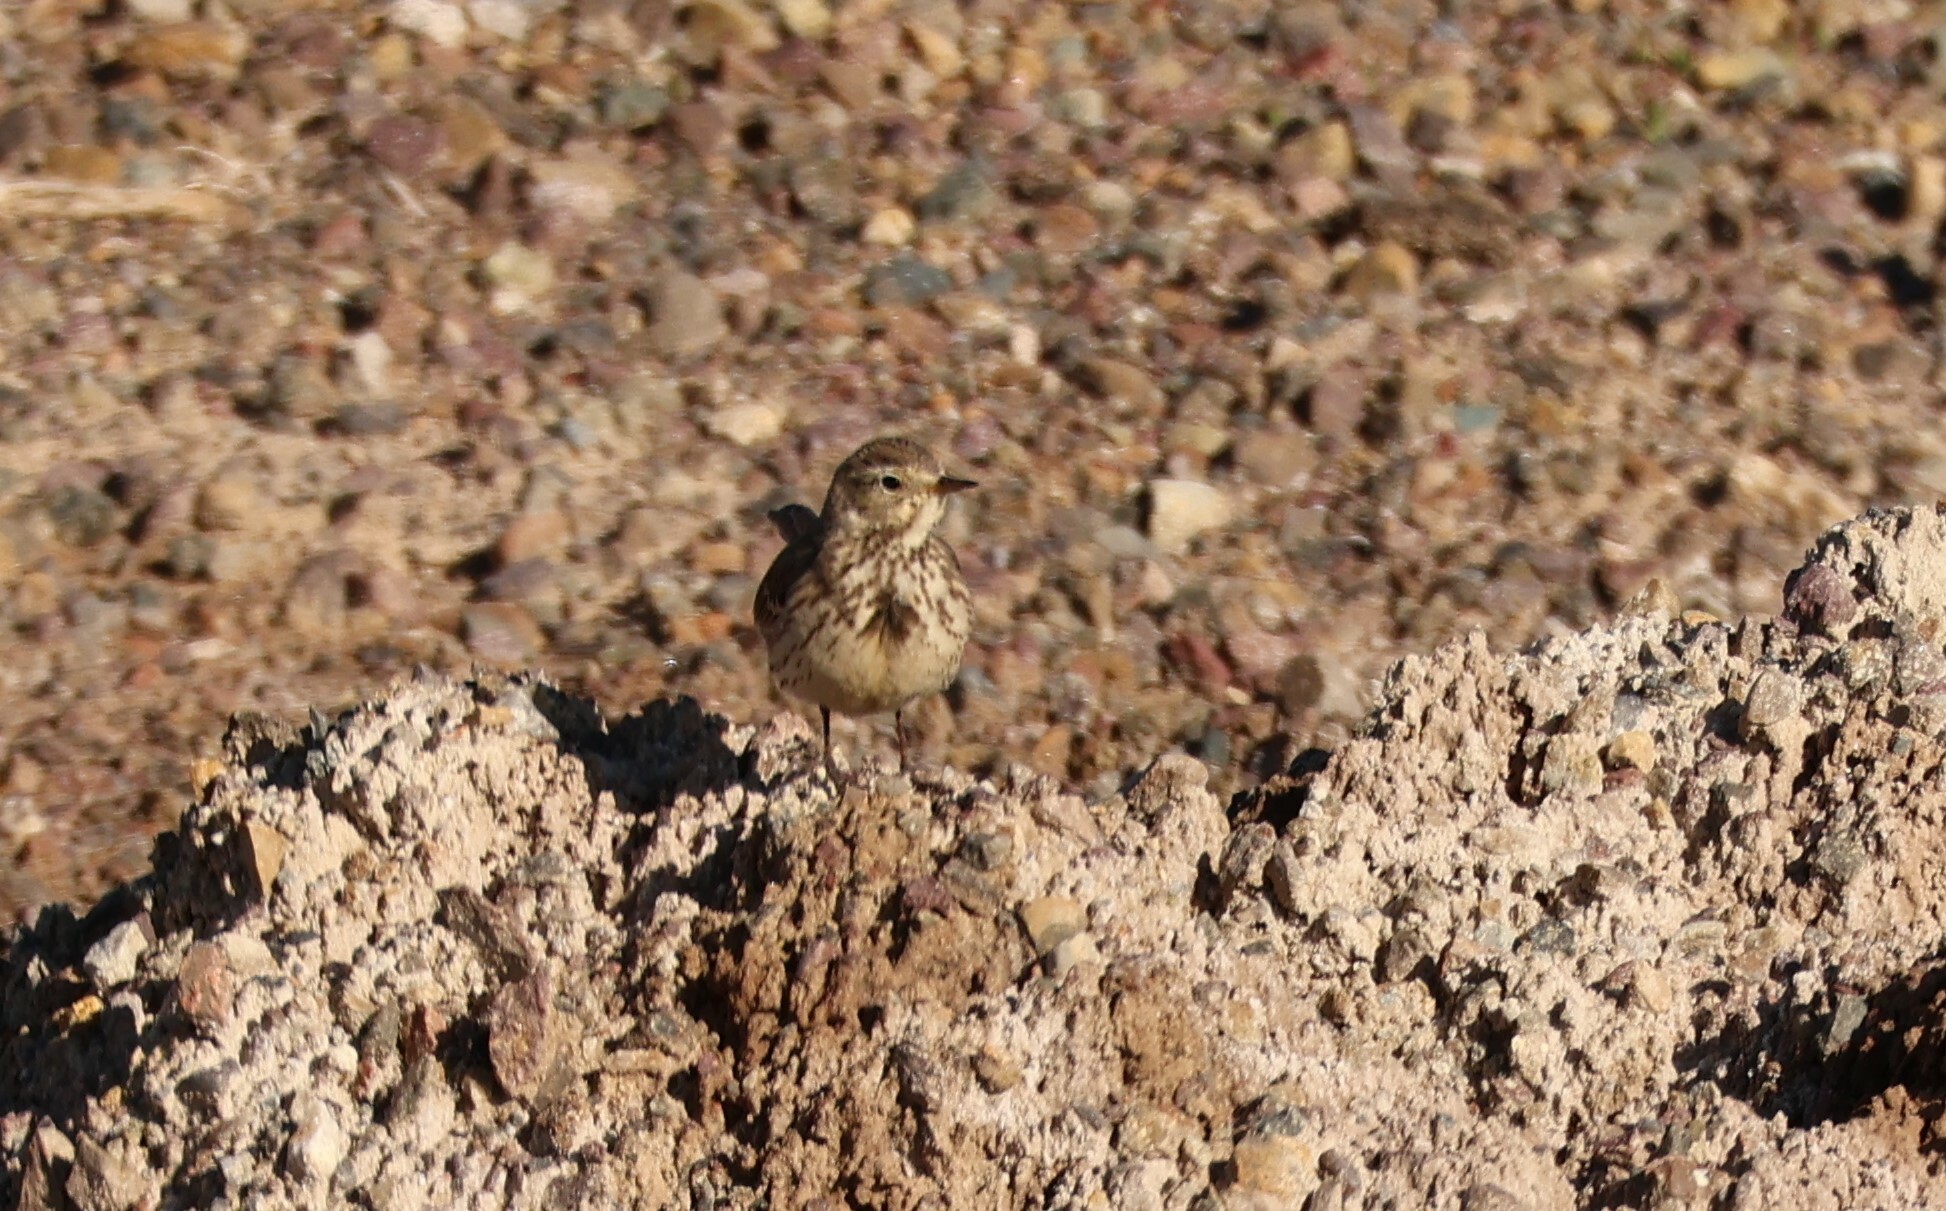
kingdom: Animalia
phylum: Chordata
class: Aves
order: Passeriformes
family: Motacillidae
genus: Anthus
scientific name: Anthus rubescens
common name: Buff-bellied pipit
